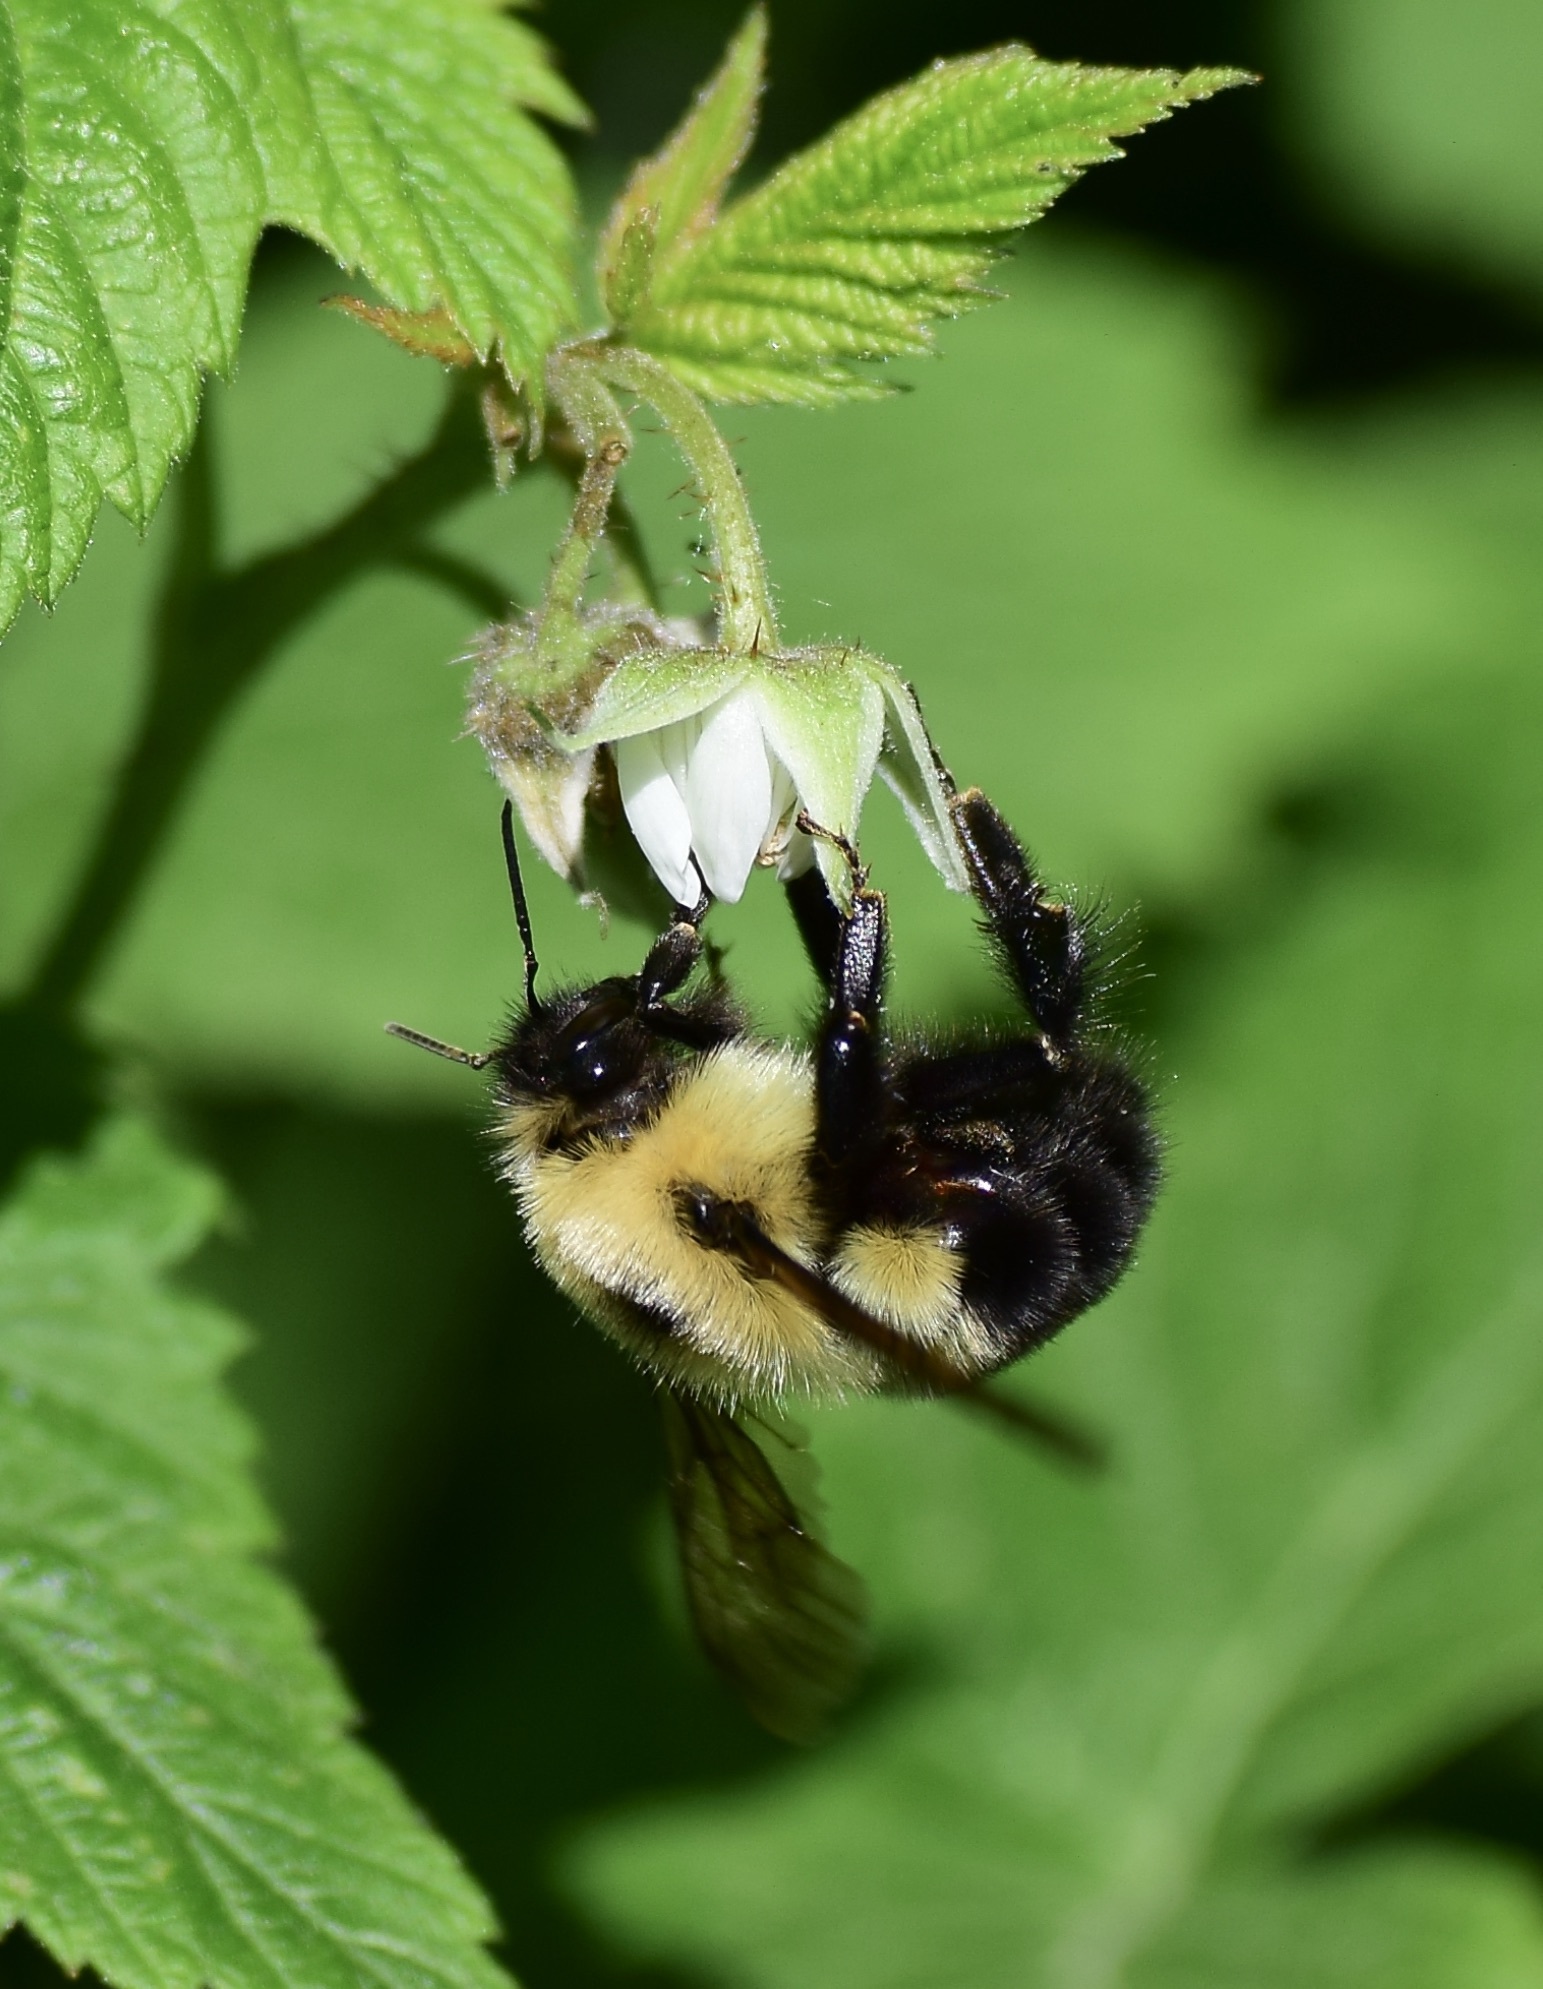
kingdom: Animalia
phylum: Arthropoda
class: Insecta
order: Hymenoptera
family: Apidae
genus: Bombus
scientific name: Bombus bimaculatus
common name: Two-spotted bumble bee
